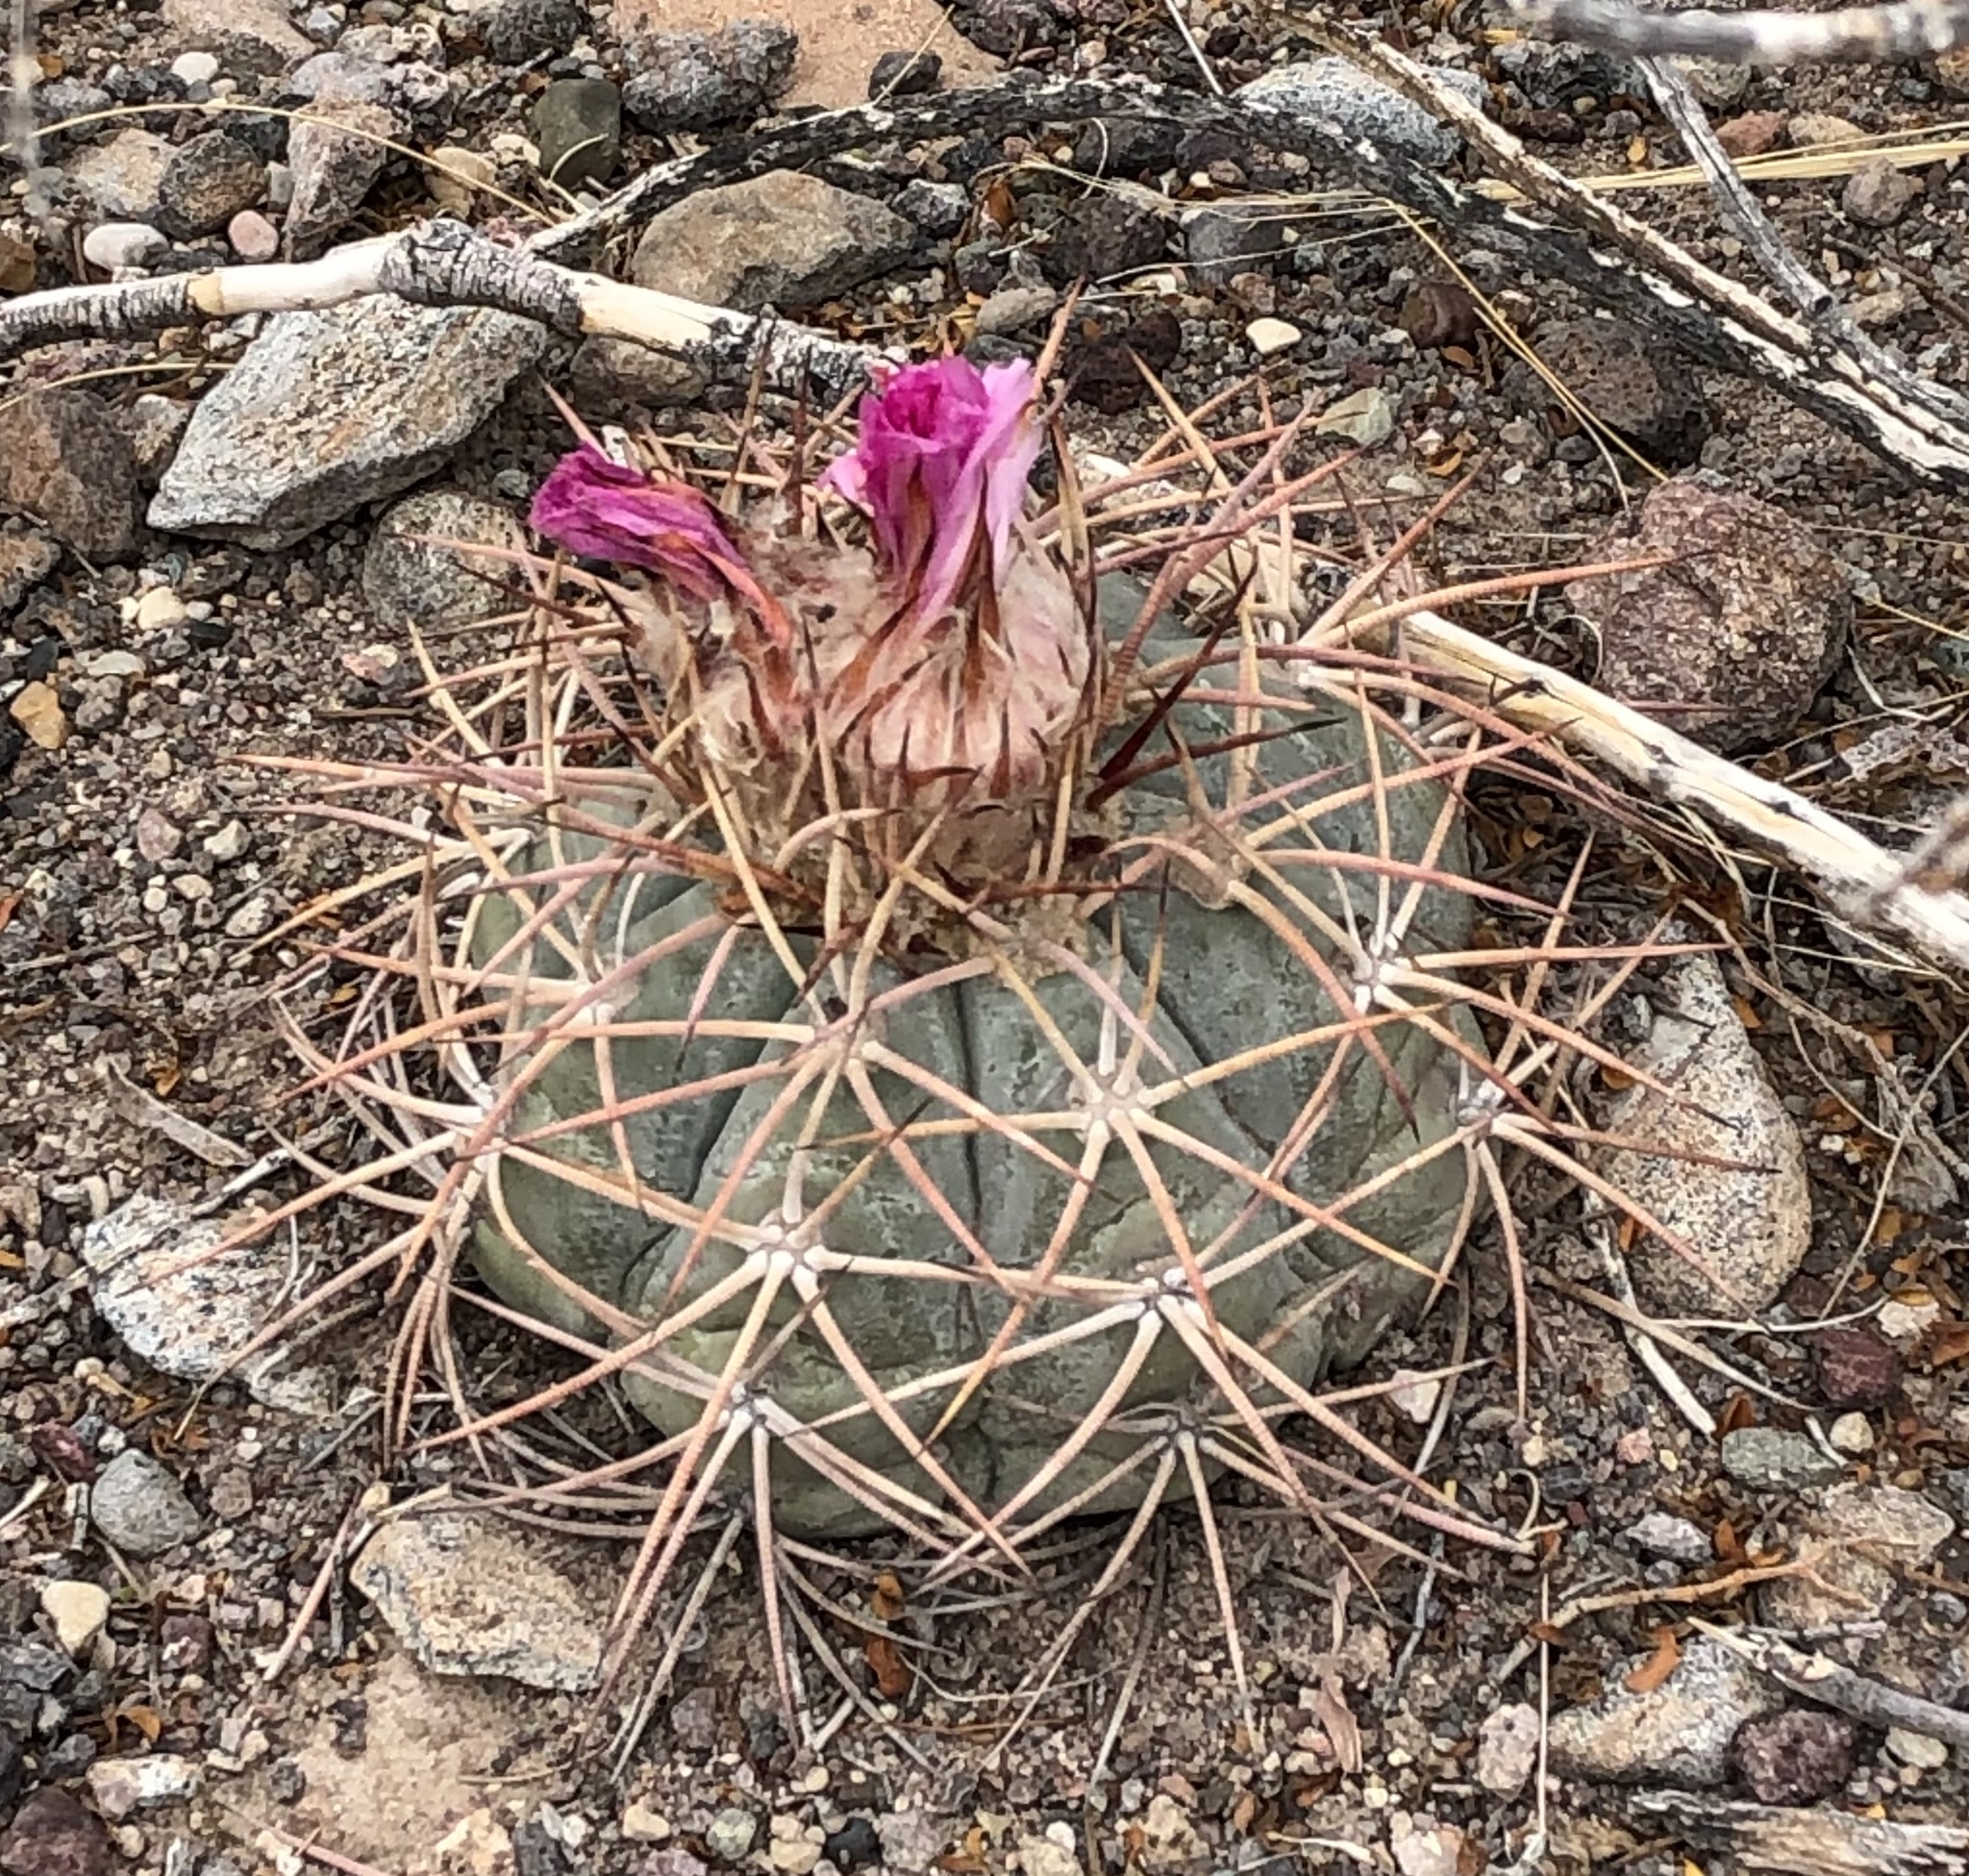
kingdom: Plantae
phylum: Tracheophyta
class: Magnoliopsida
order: Caryophyllales
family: Cactaceae
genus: Echinocactus
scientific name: Echinocactus horizonthalonius
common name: Devilshead
